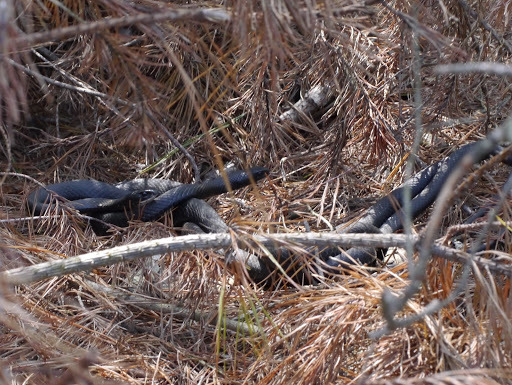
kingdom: Animalia
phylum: Chordata
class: Squamata
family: Colubridae
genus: Coluber
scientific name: Coluber constrictor
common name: Eastern racer
